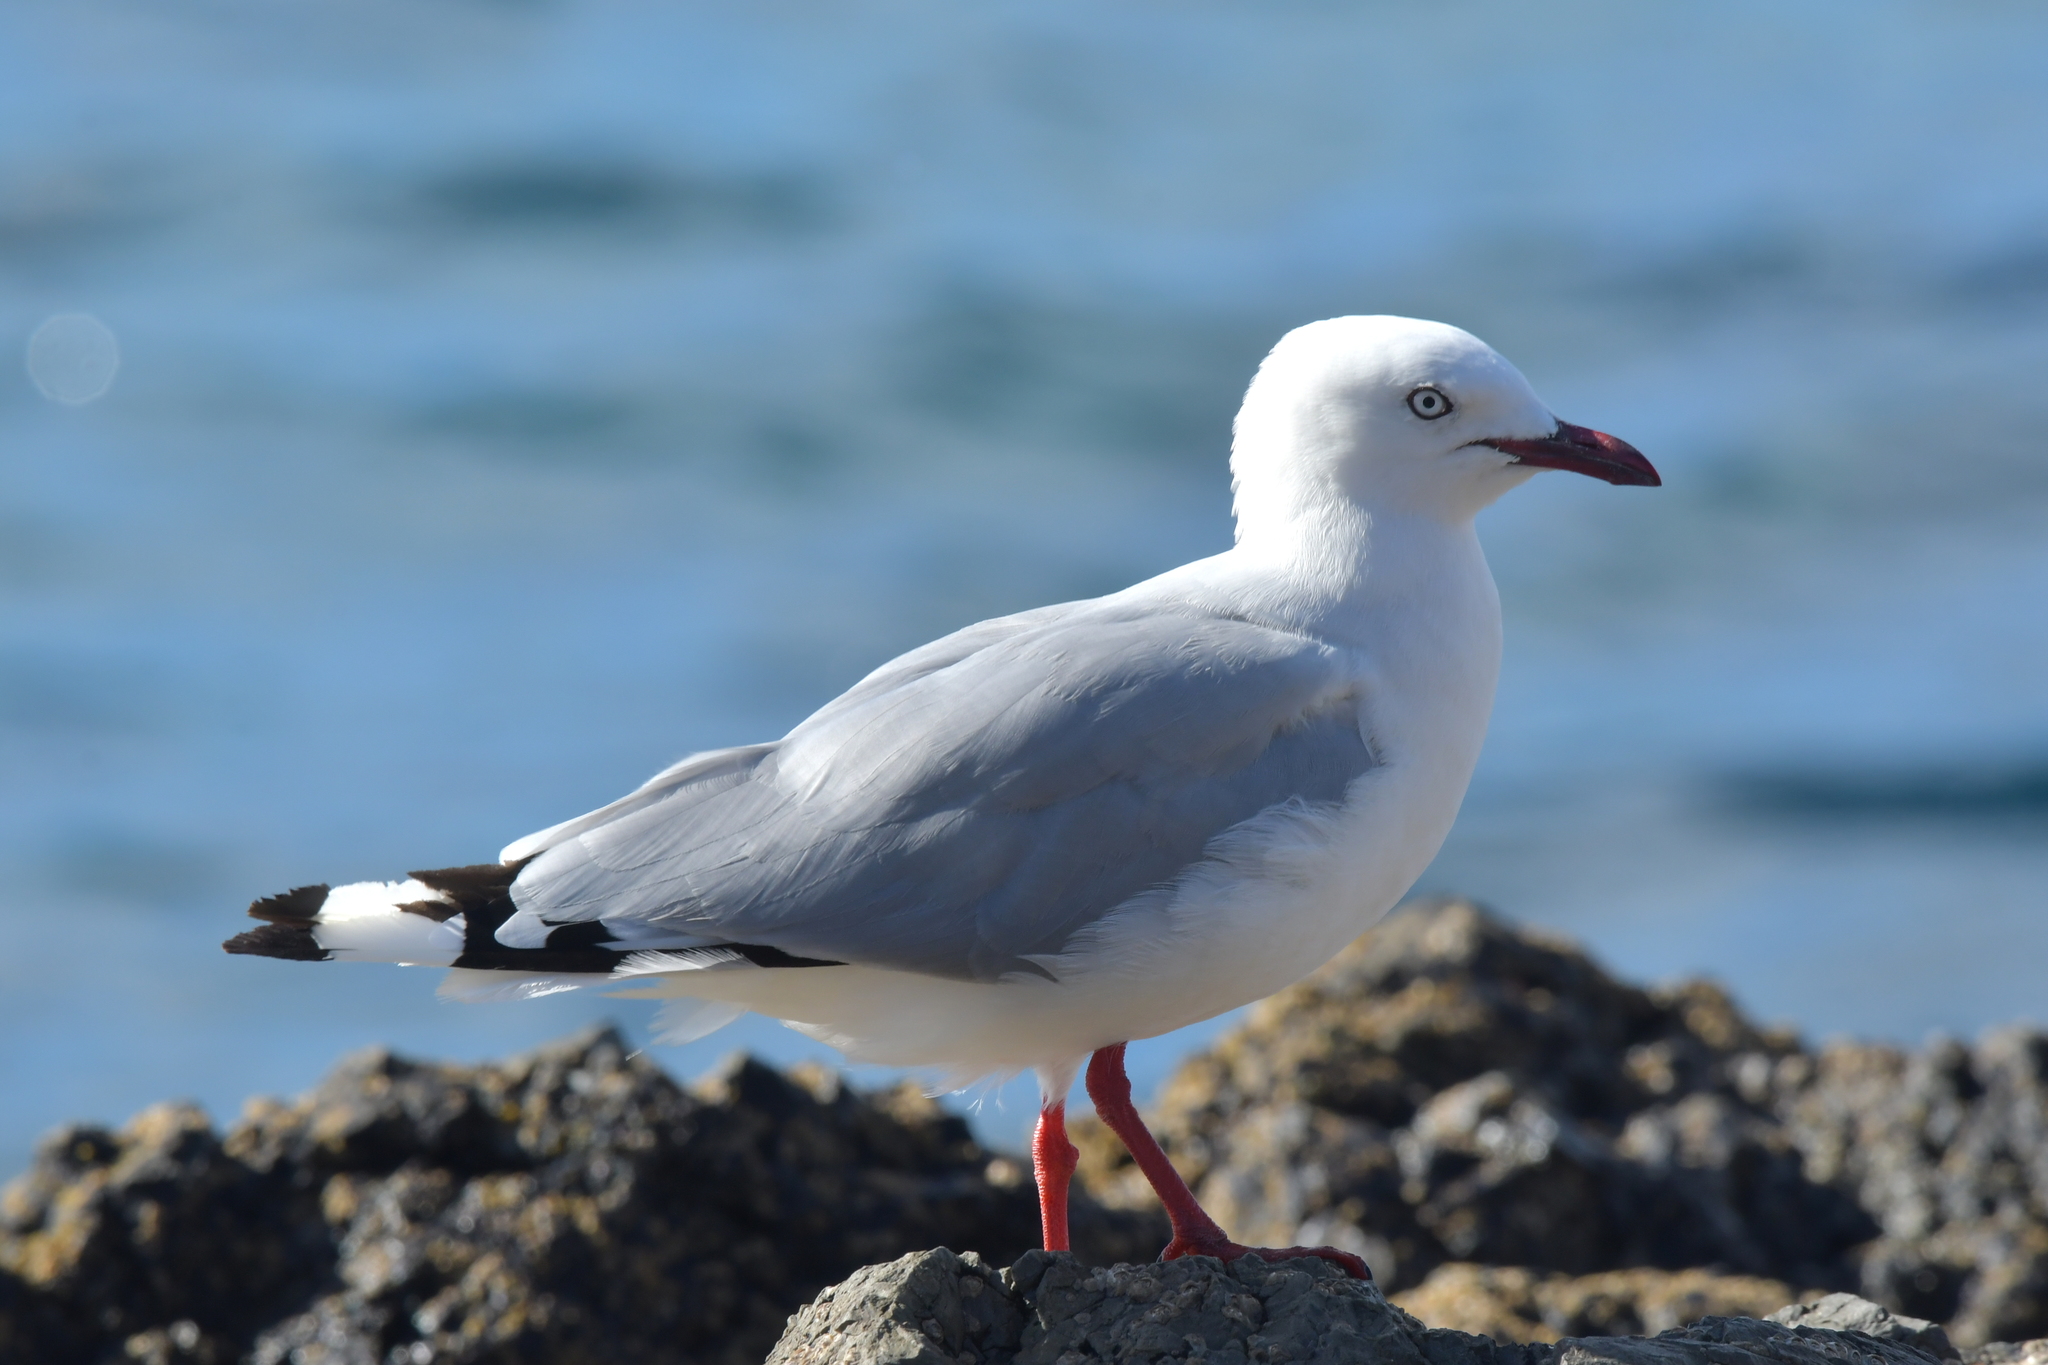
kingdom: Animalia
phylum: Chordata
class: Aves
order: Charadriiformes
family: Laridae
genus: Chroicocephalus
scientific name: Chroicocephalus novaehollandiae
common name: Silver gull
